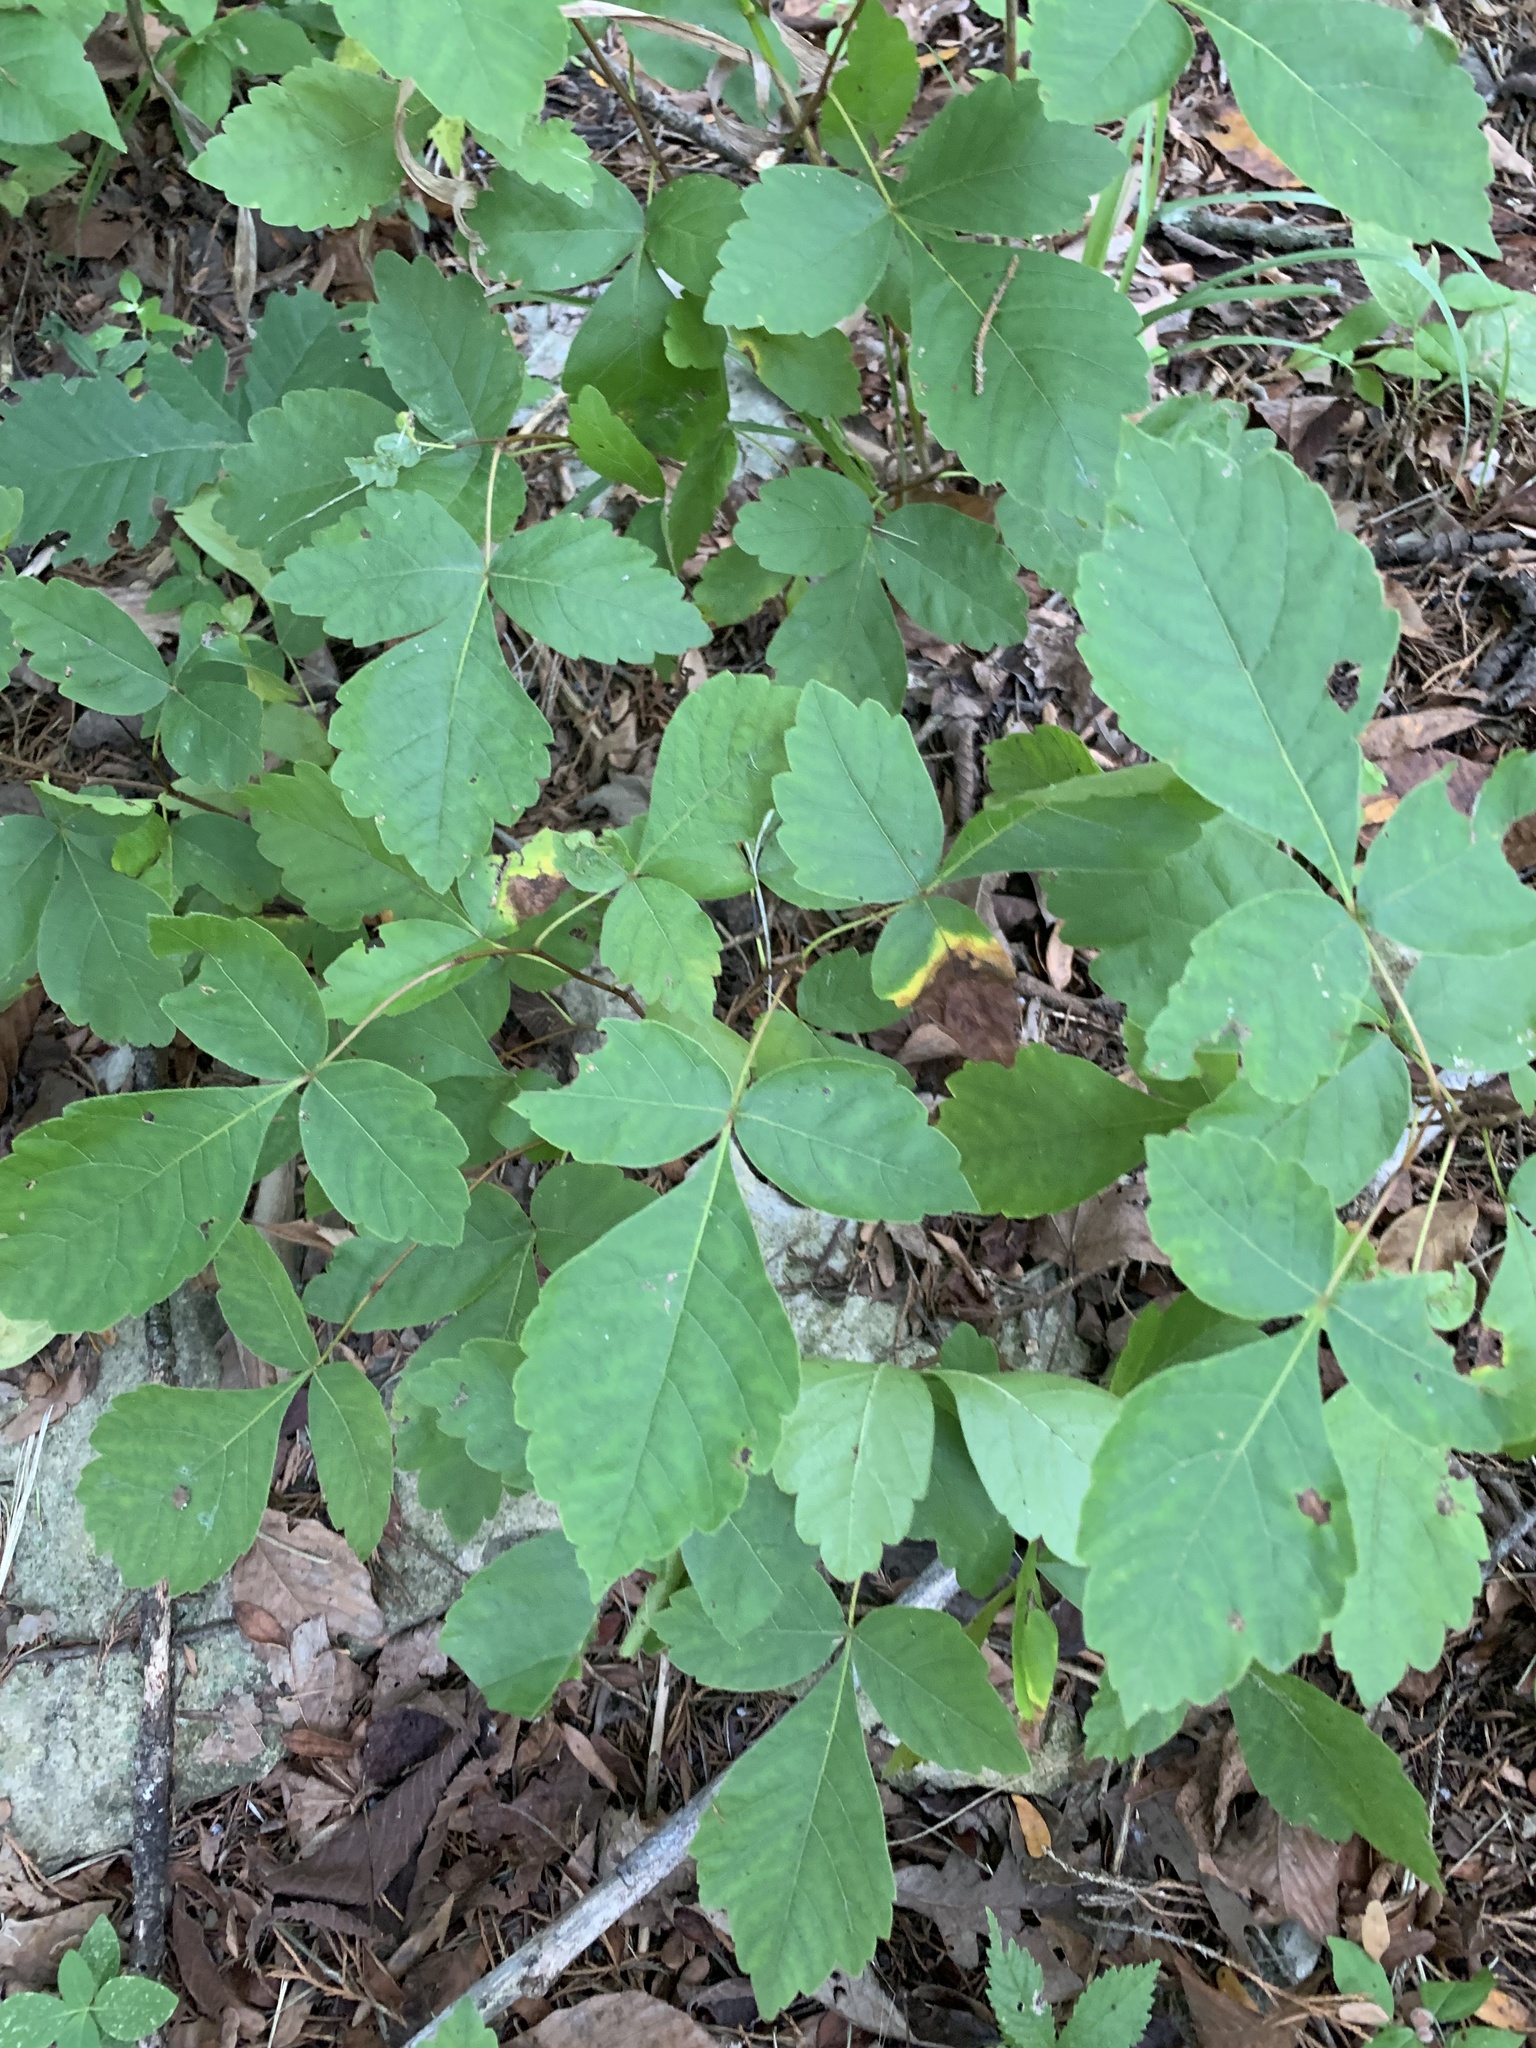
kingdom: Plantae
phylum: Tracheophyta
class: Magnoliopsida
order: Sapindales
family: Anacardiaceae
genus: Rhus
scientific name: Rhus aromatica
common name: Aromatic sumac
